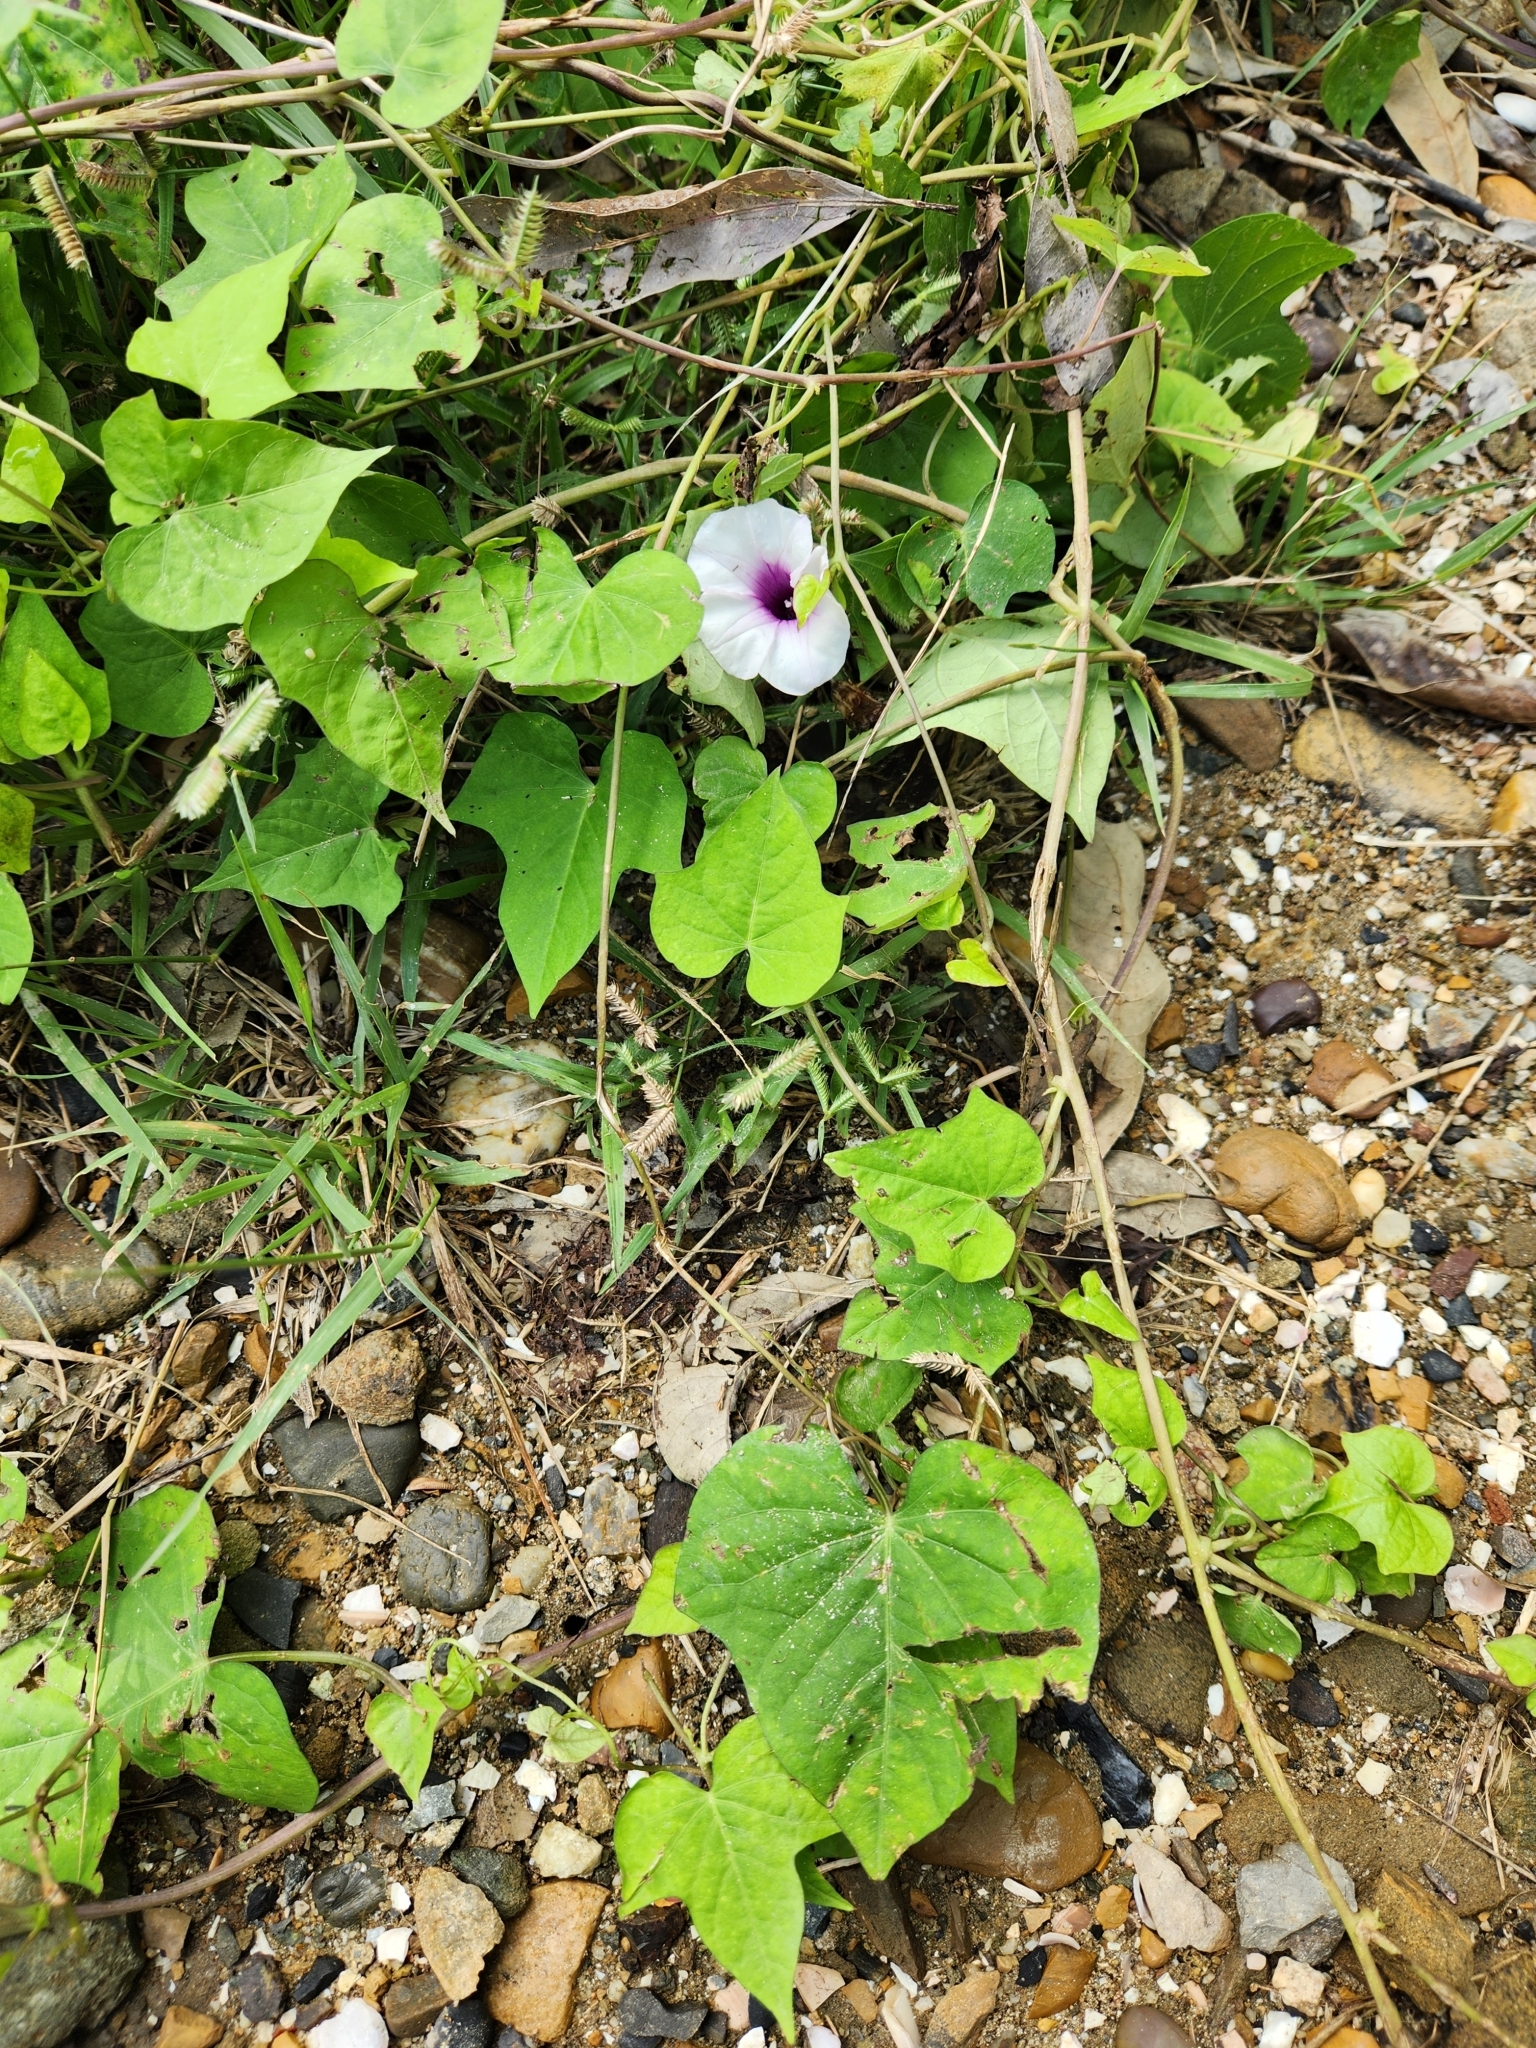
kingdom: Plantae
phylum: Tracheophyta
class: Magnoliopsida
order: Solanales
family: Convolvulaceae
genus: Ipomoea
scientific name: Ipomoea batatas
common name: Sweet-potato
